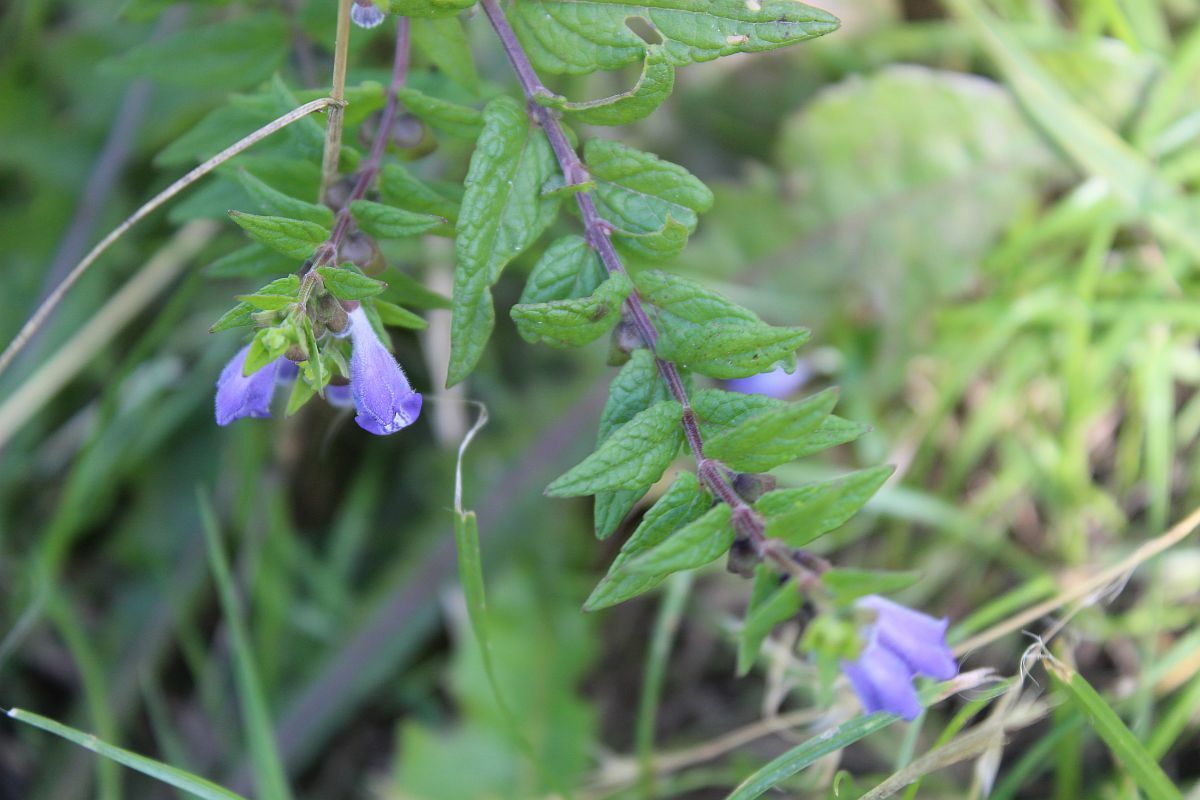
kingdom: Plantae
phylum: Tracheophyta
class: Magnoliopsida
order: Lamiales
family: Lamiaceae
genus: Scutellaria
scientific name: Scutellaria galericulata
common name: Skullcap
